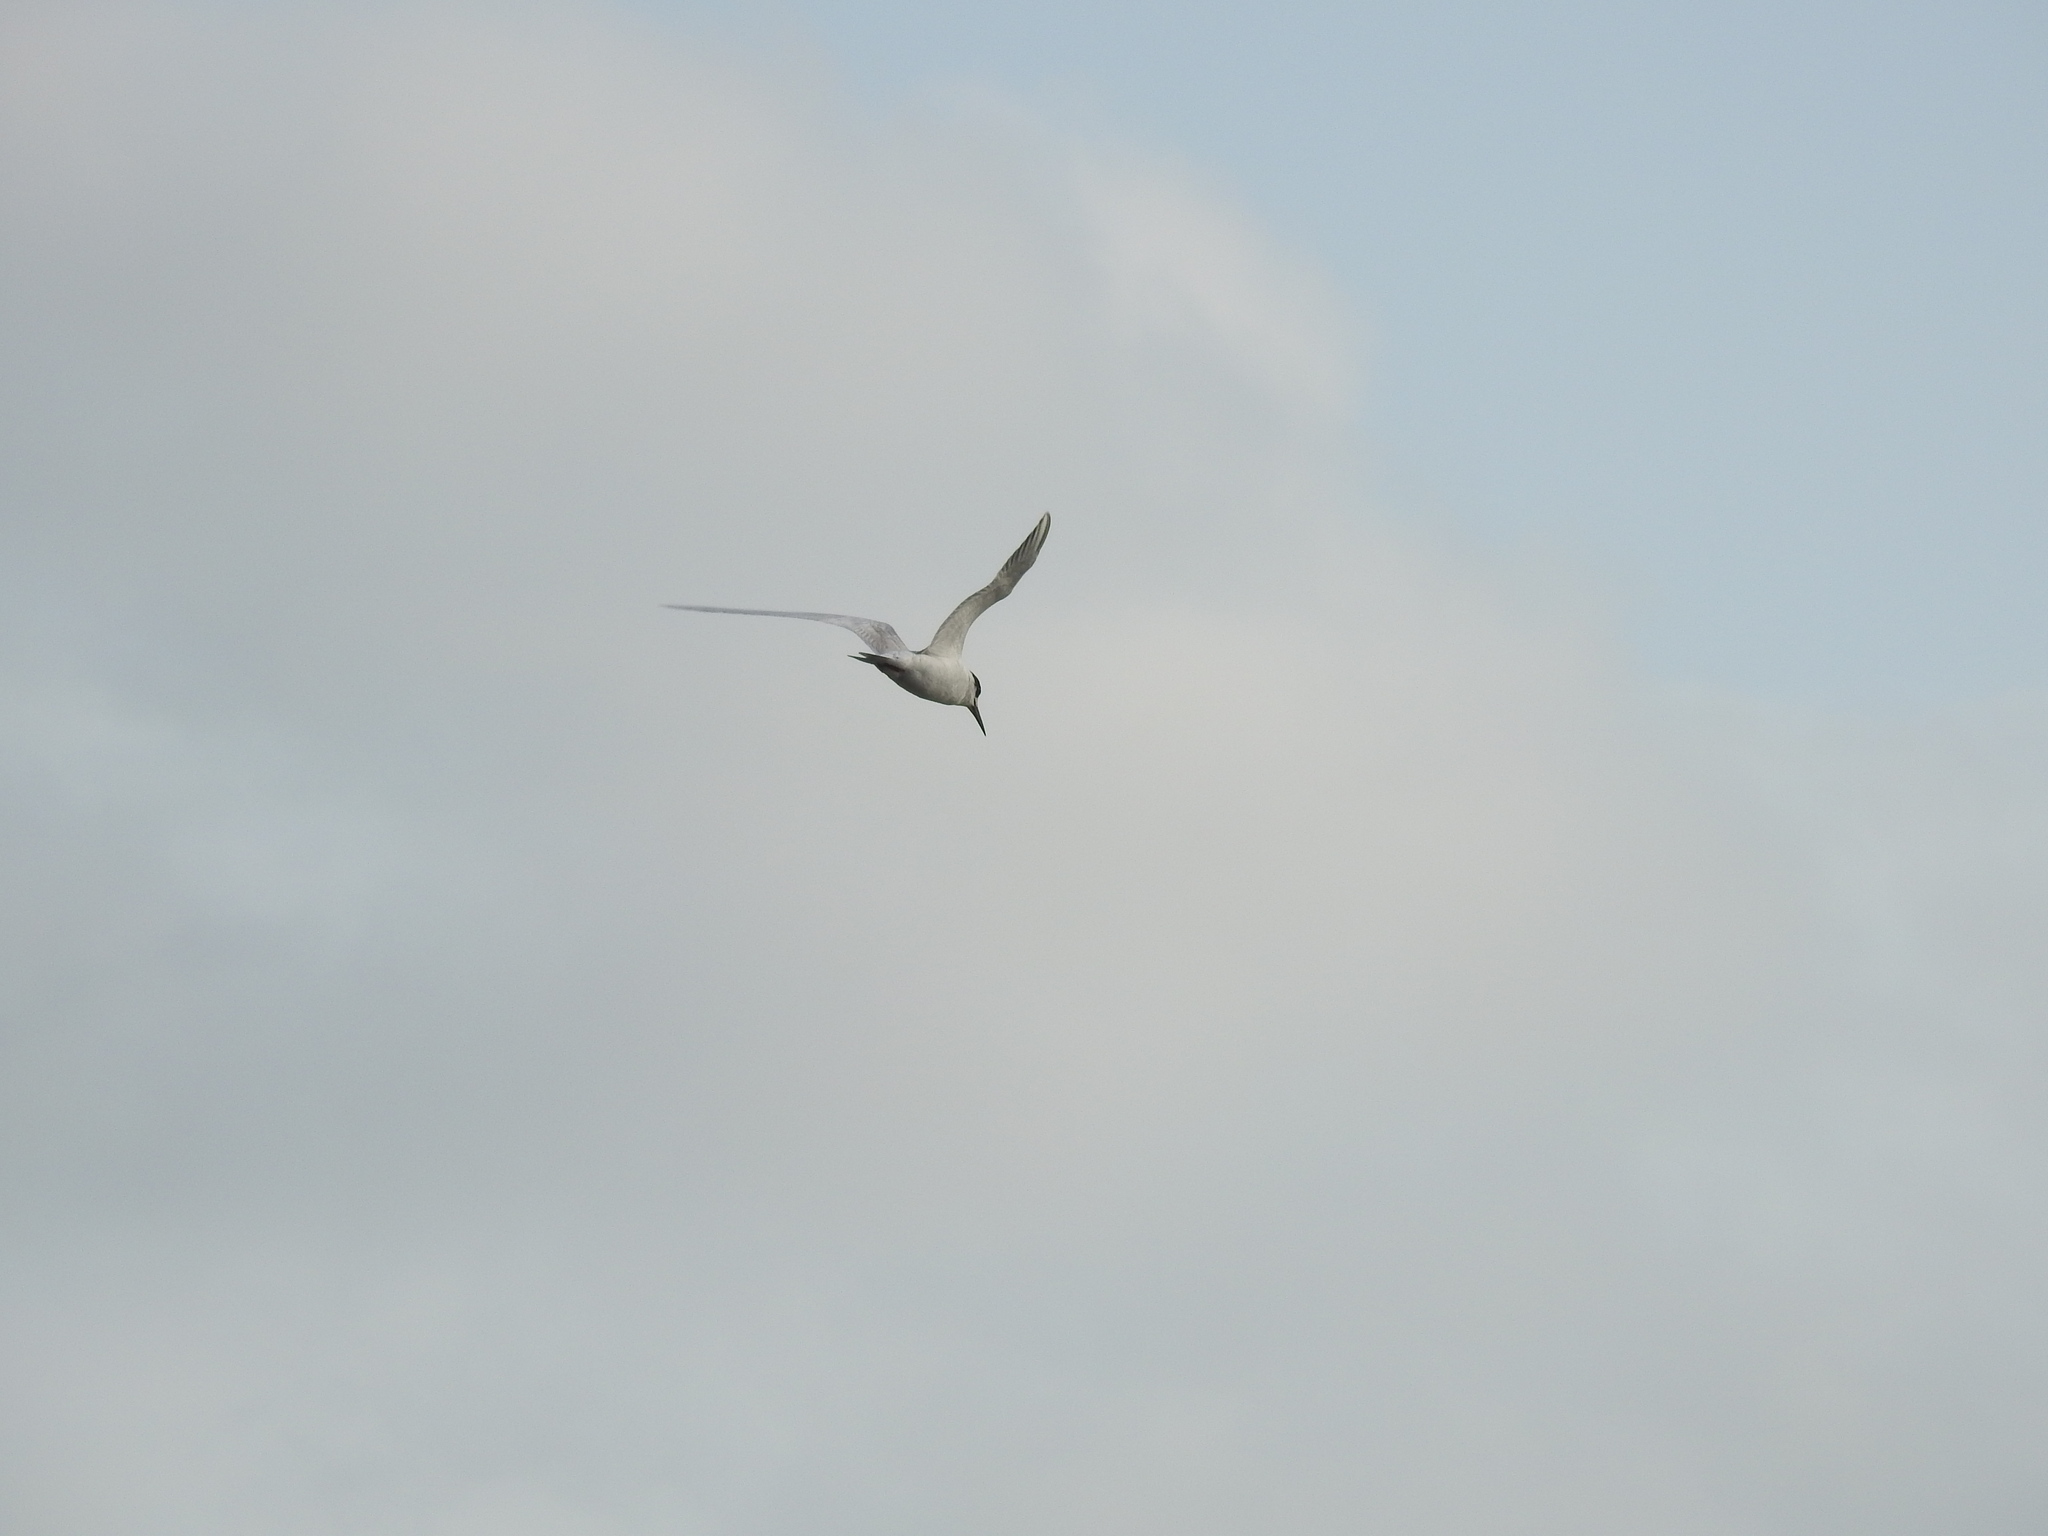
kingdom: Animalia
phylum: Chordata
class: Aves
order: Charadriiformes
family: Laridae
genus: Sterna
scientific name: Sterna hirundo
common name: Common tern
